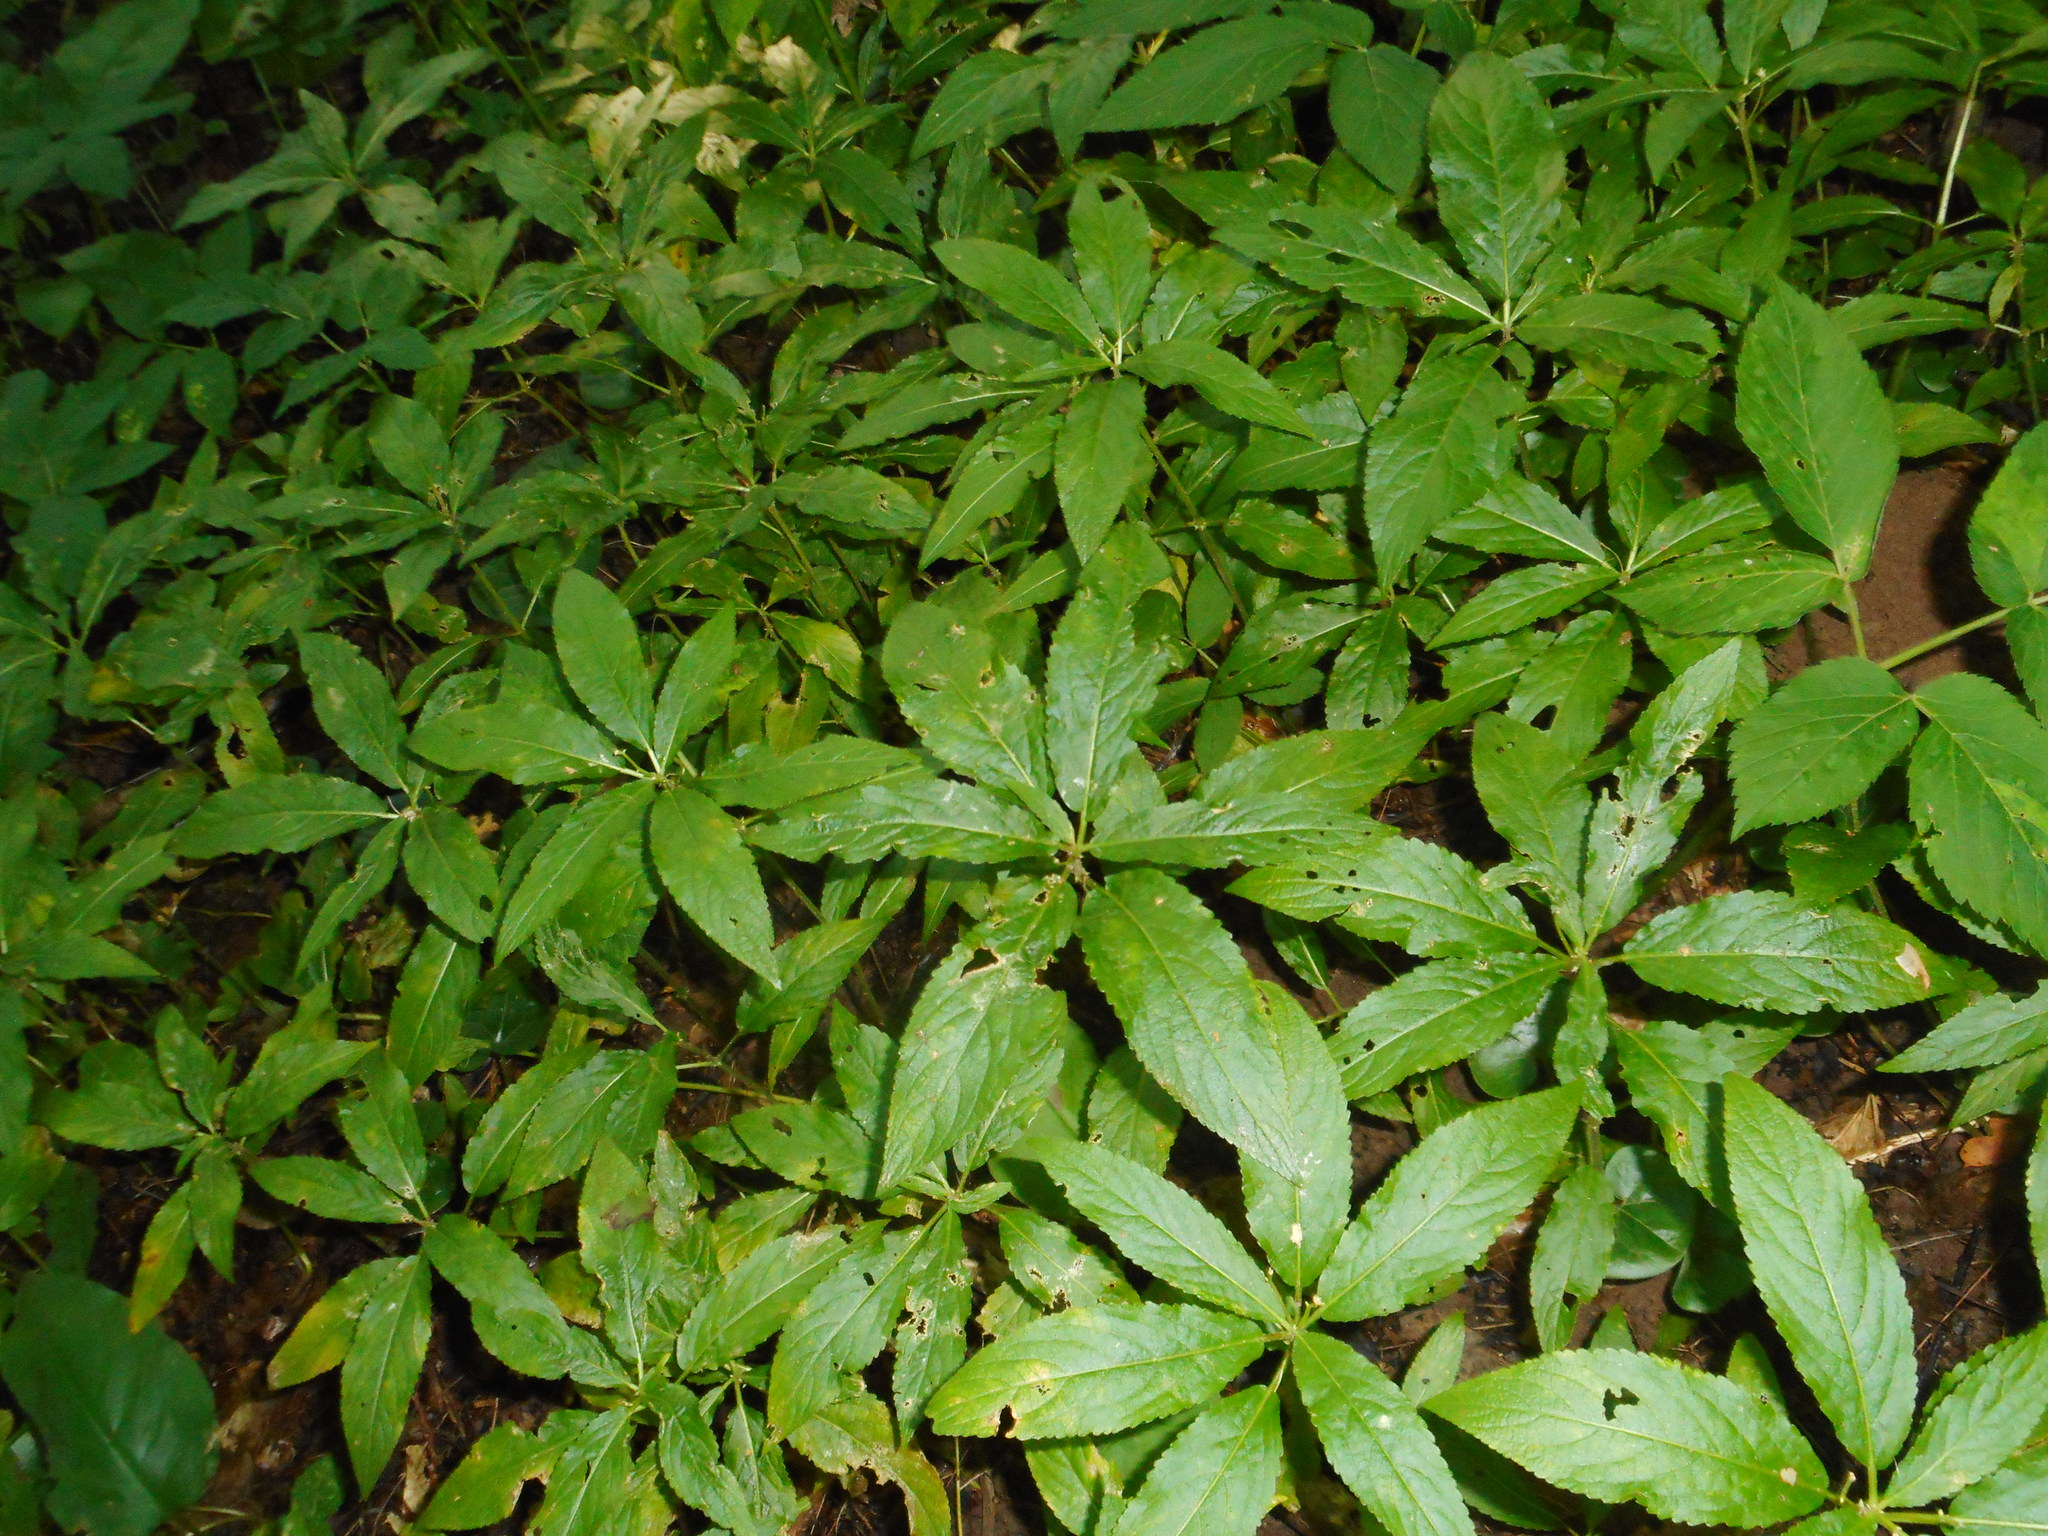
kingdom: Plantae
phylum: Tracheophyta
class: Magnoliopsida
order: Malpighiales
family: Euphorbiaceae
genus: Mercurialis
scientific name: Mercurialis perennis
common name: Dog mercury
